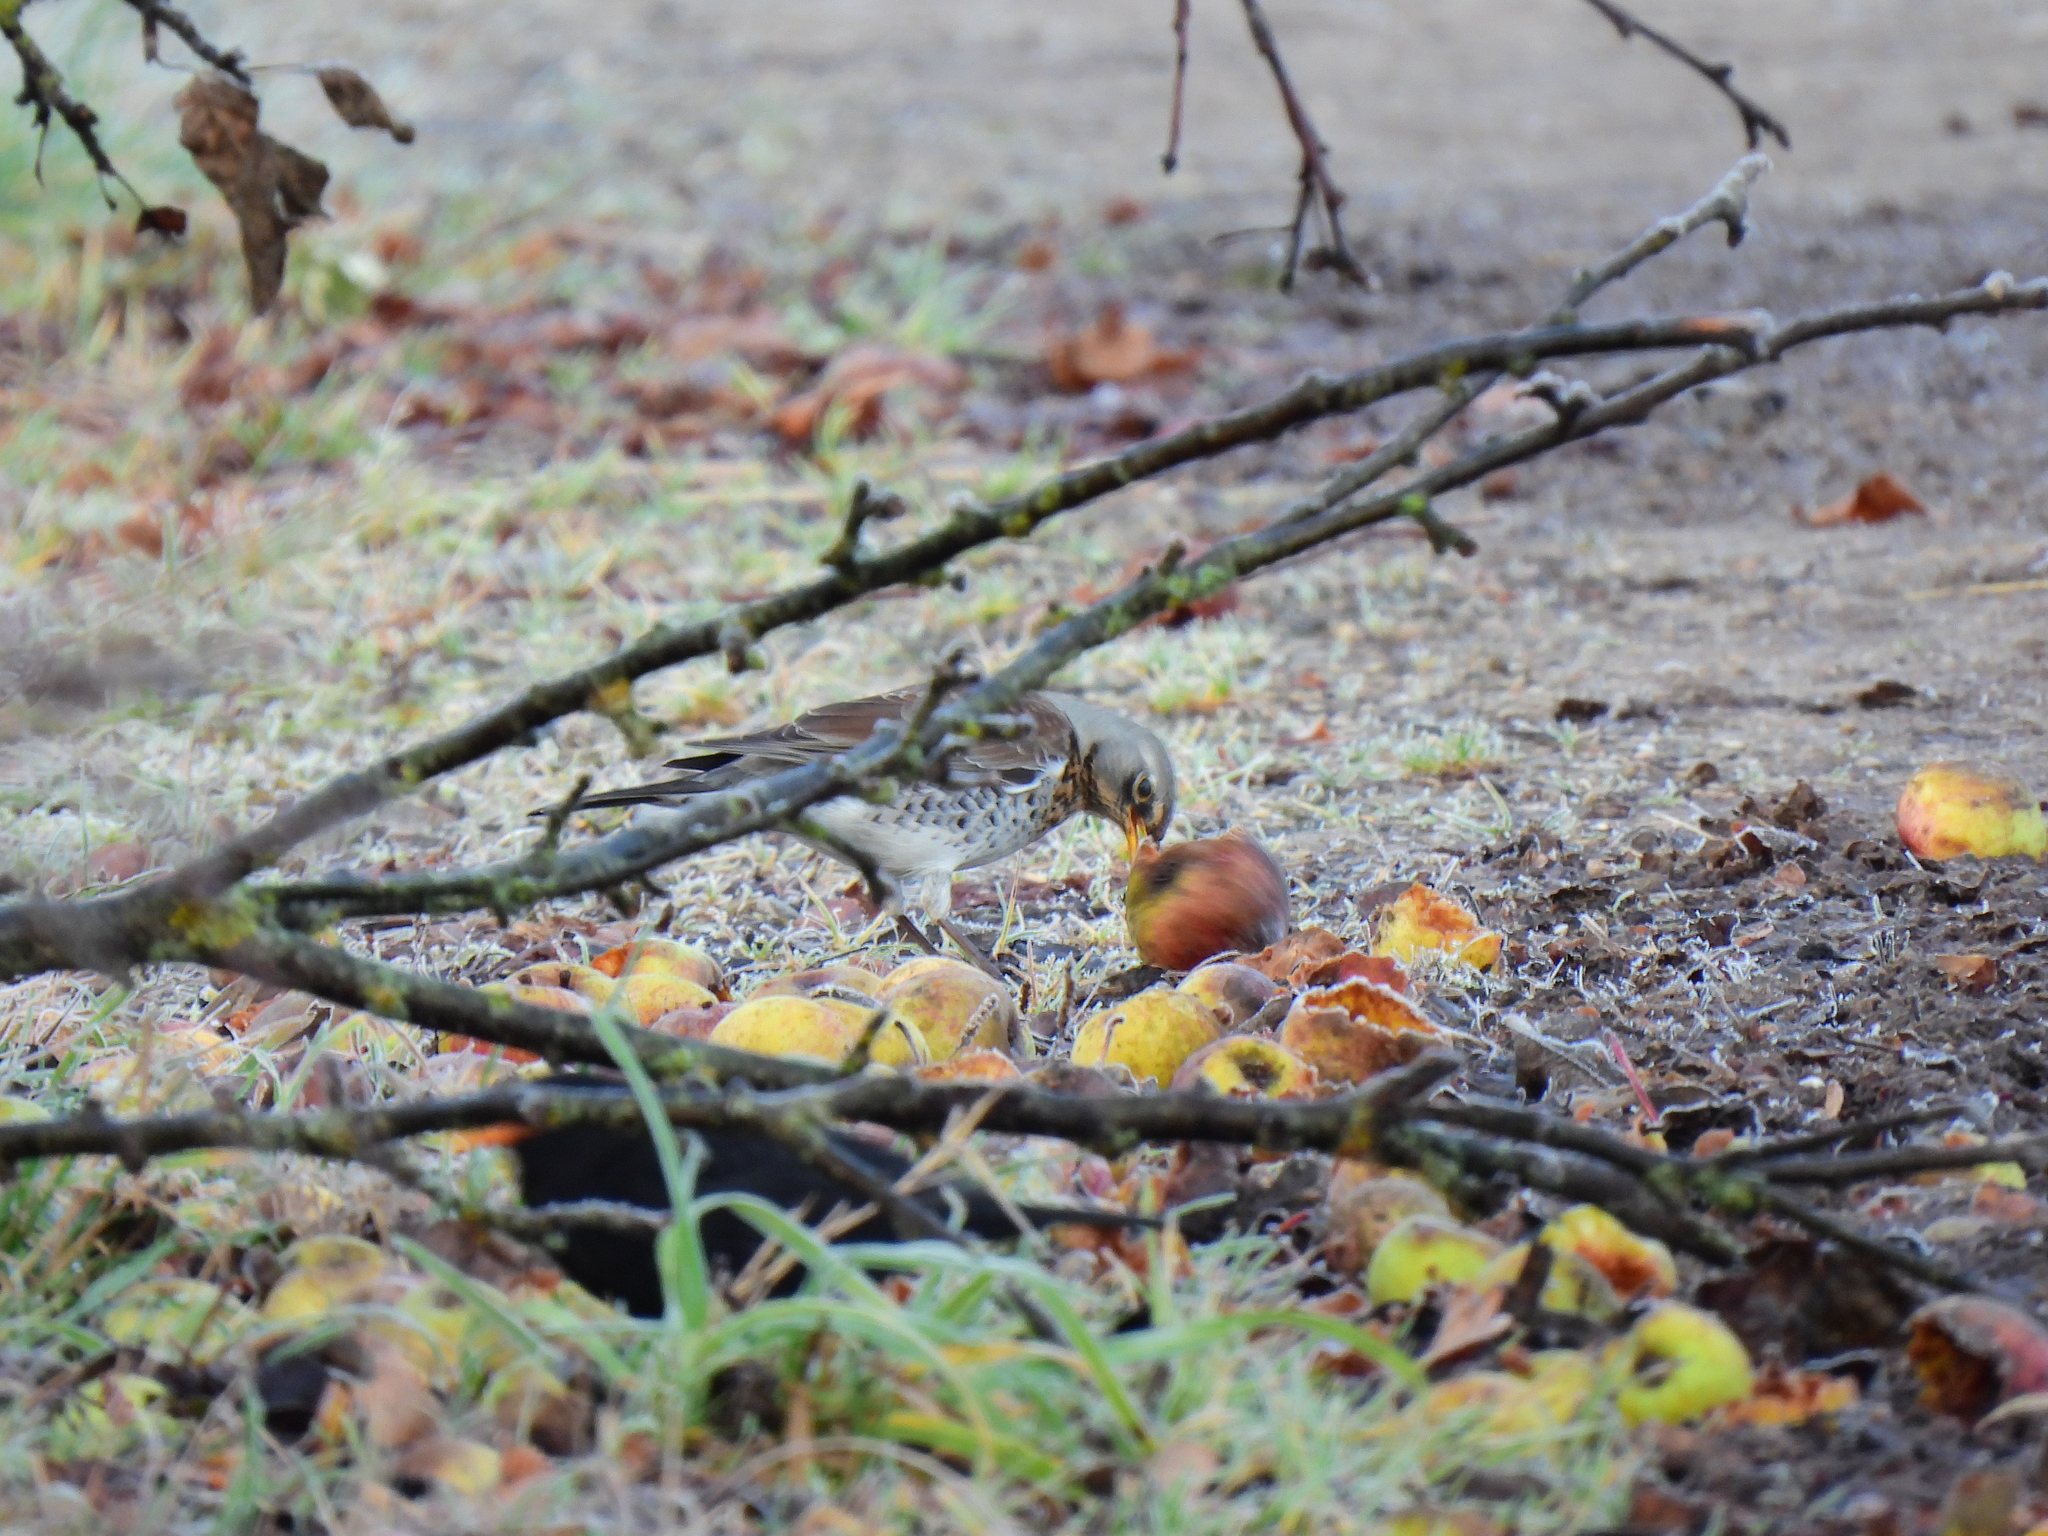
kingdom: Animalia
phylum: Chordata
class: Aves
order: Passeriformes
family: Turdidae
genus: Turdus
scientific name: Turdus pilaris
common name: Fieldfare
